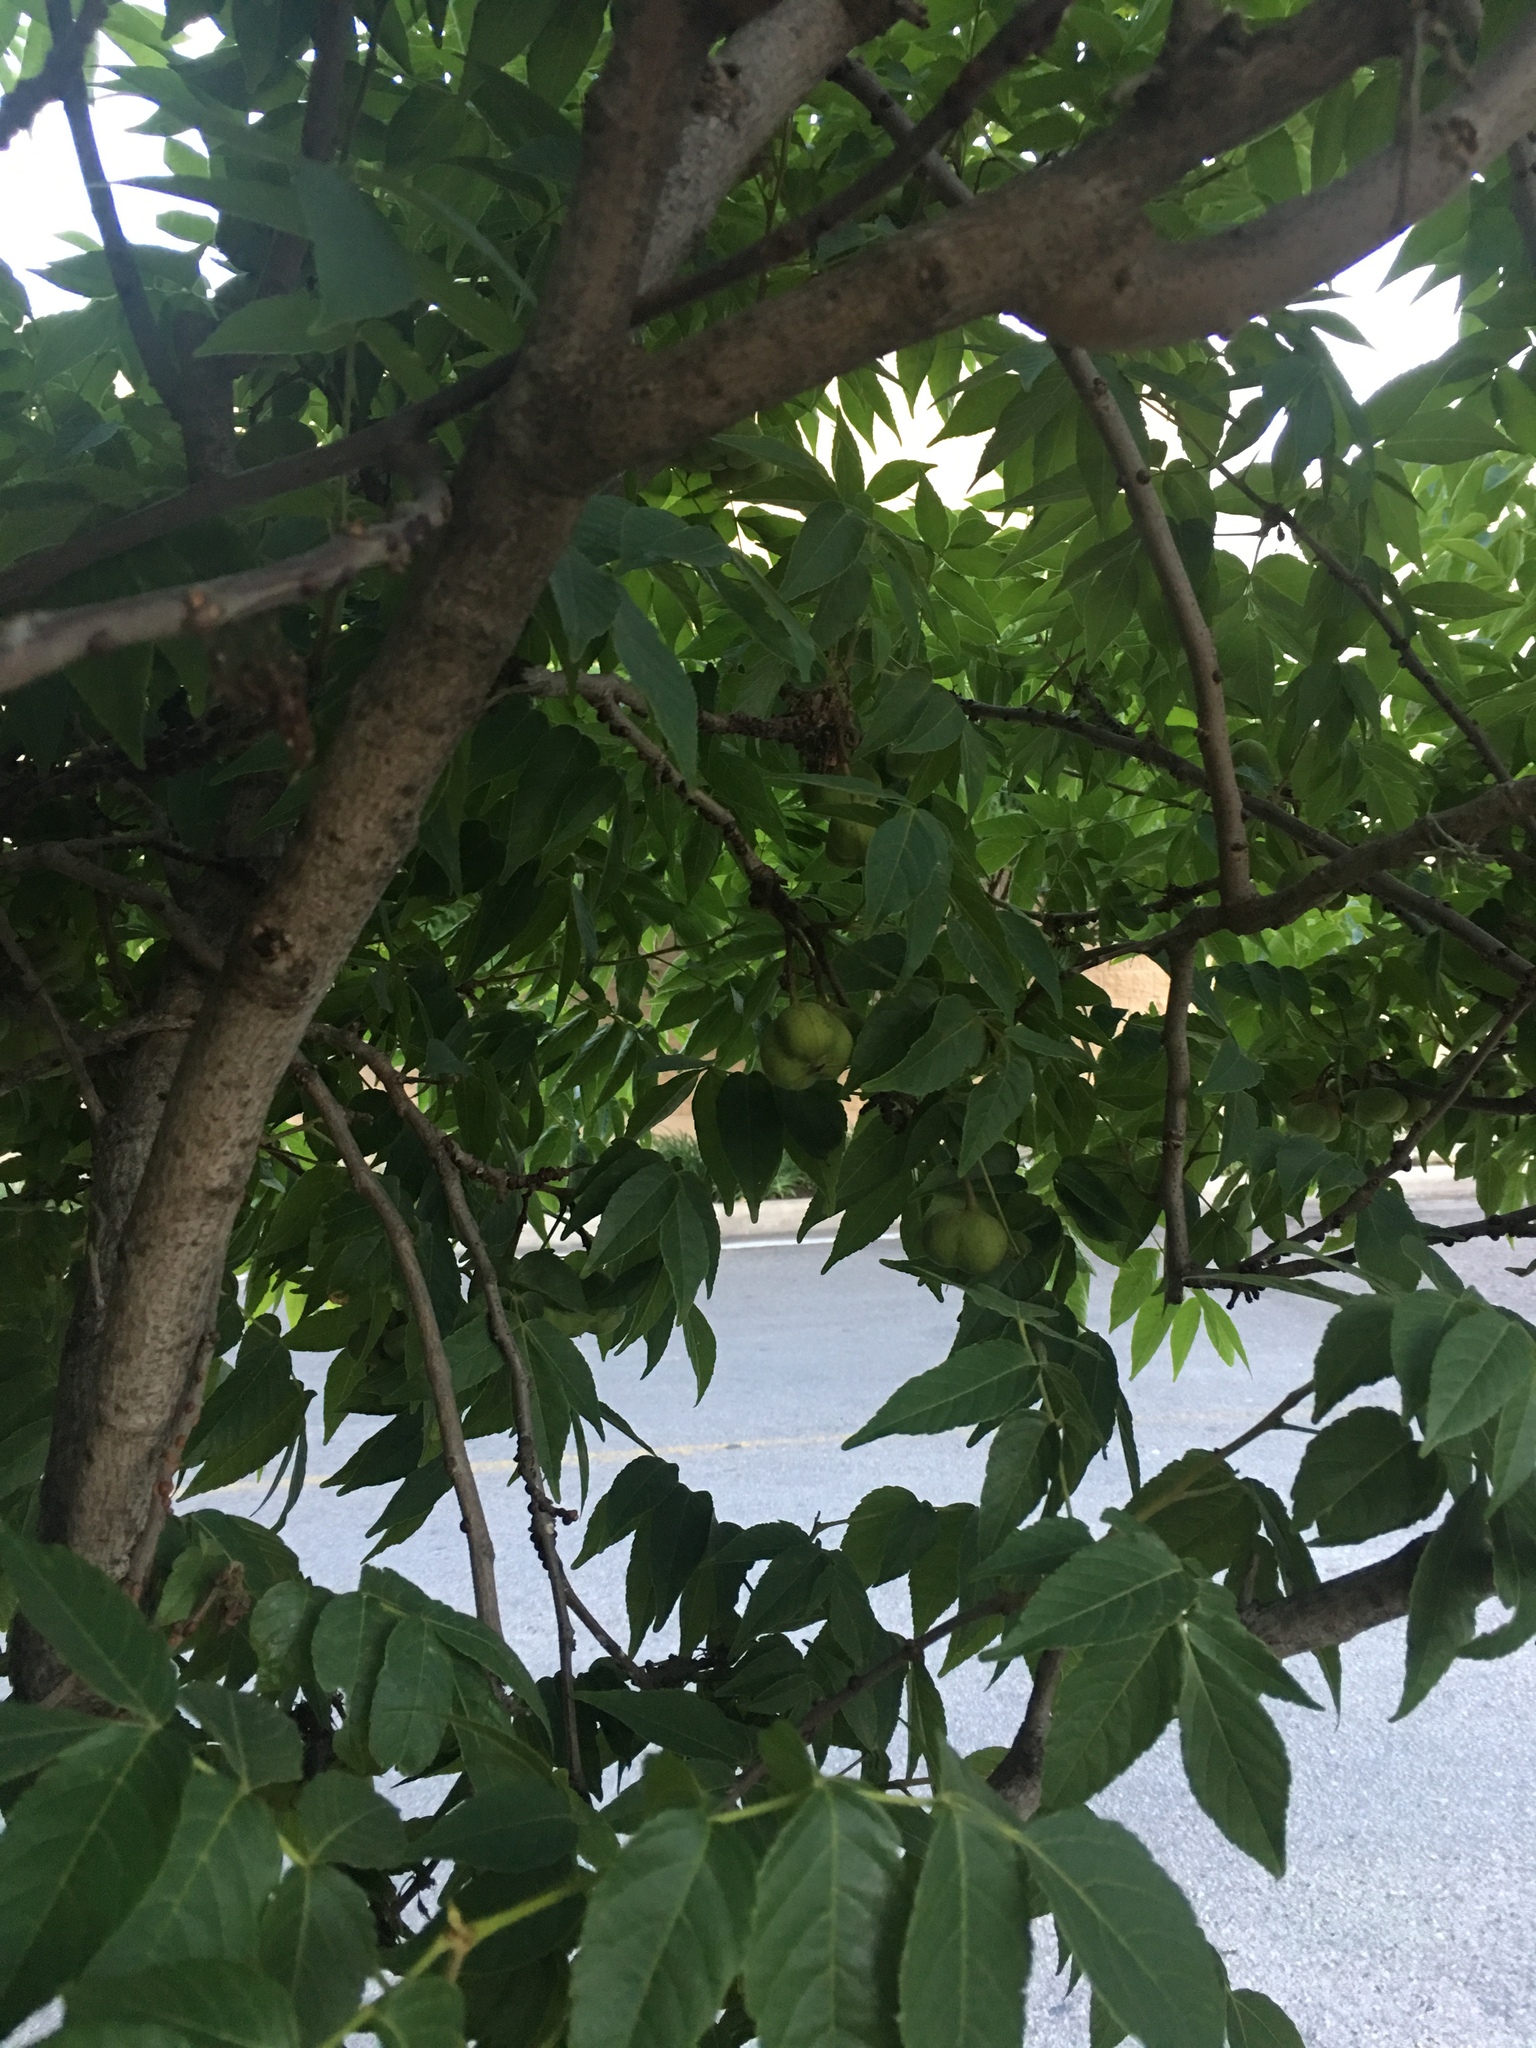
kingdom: Plantae
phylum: Tracheophyta
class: Magnoliopsida
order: Sapindales
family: Sapindaceae
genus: Ungnadia
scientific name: Ungnadia speciosa
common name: Texas-buckeye
